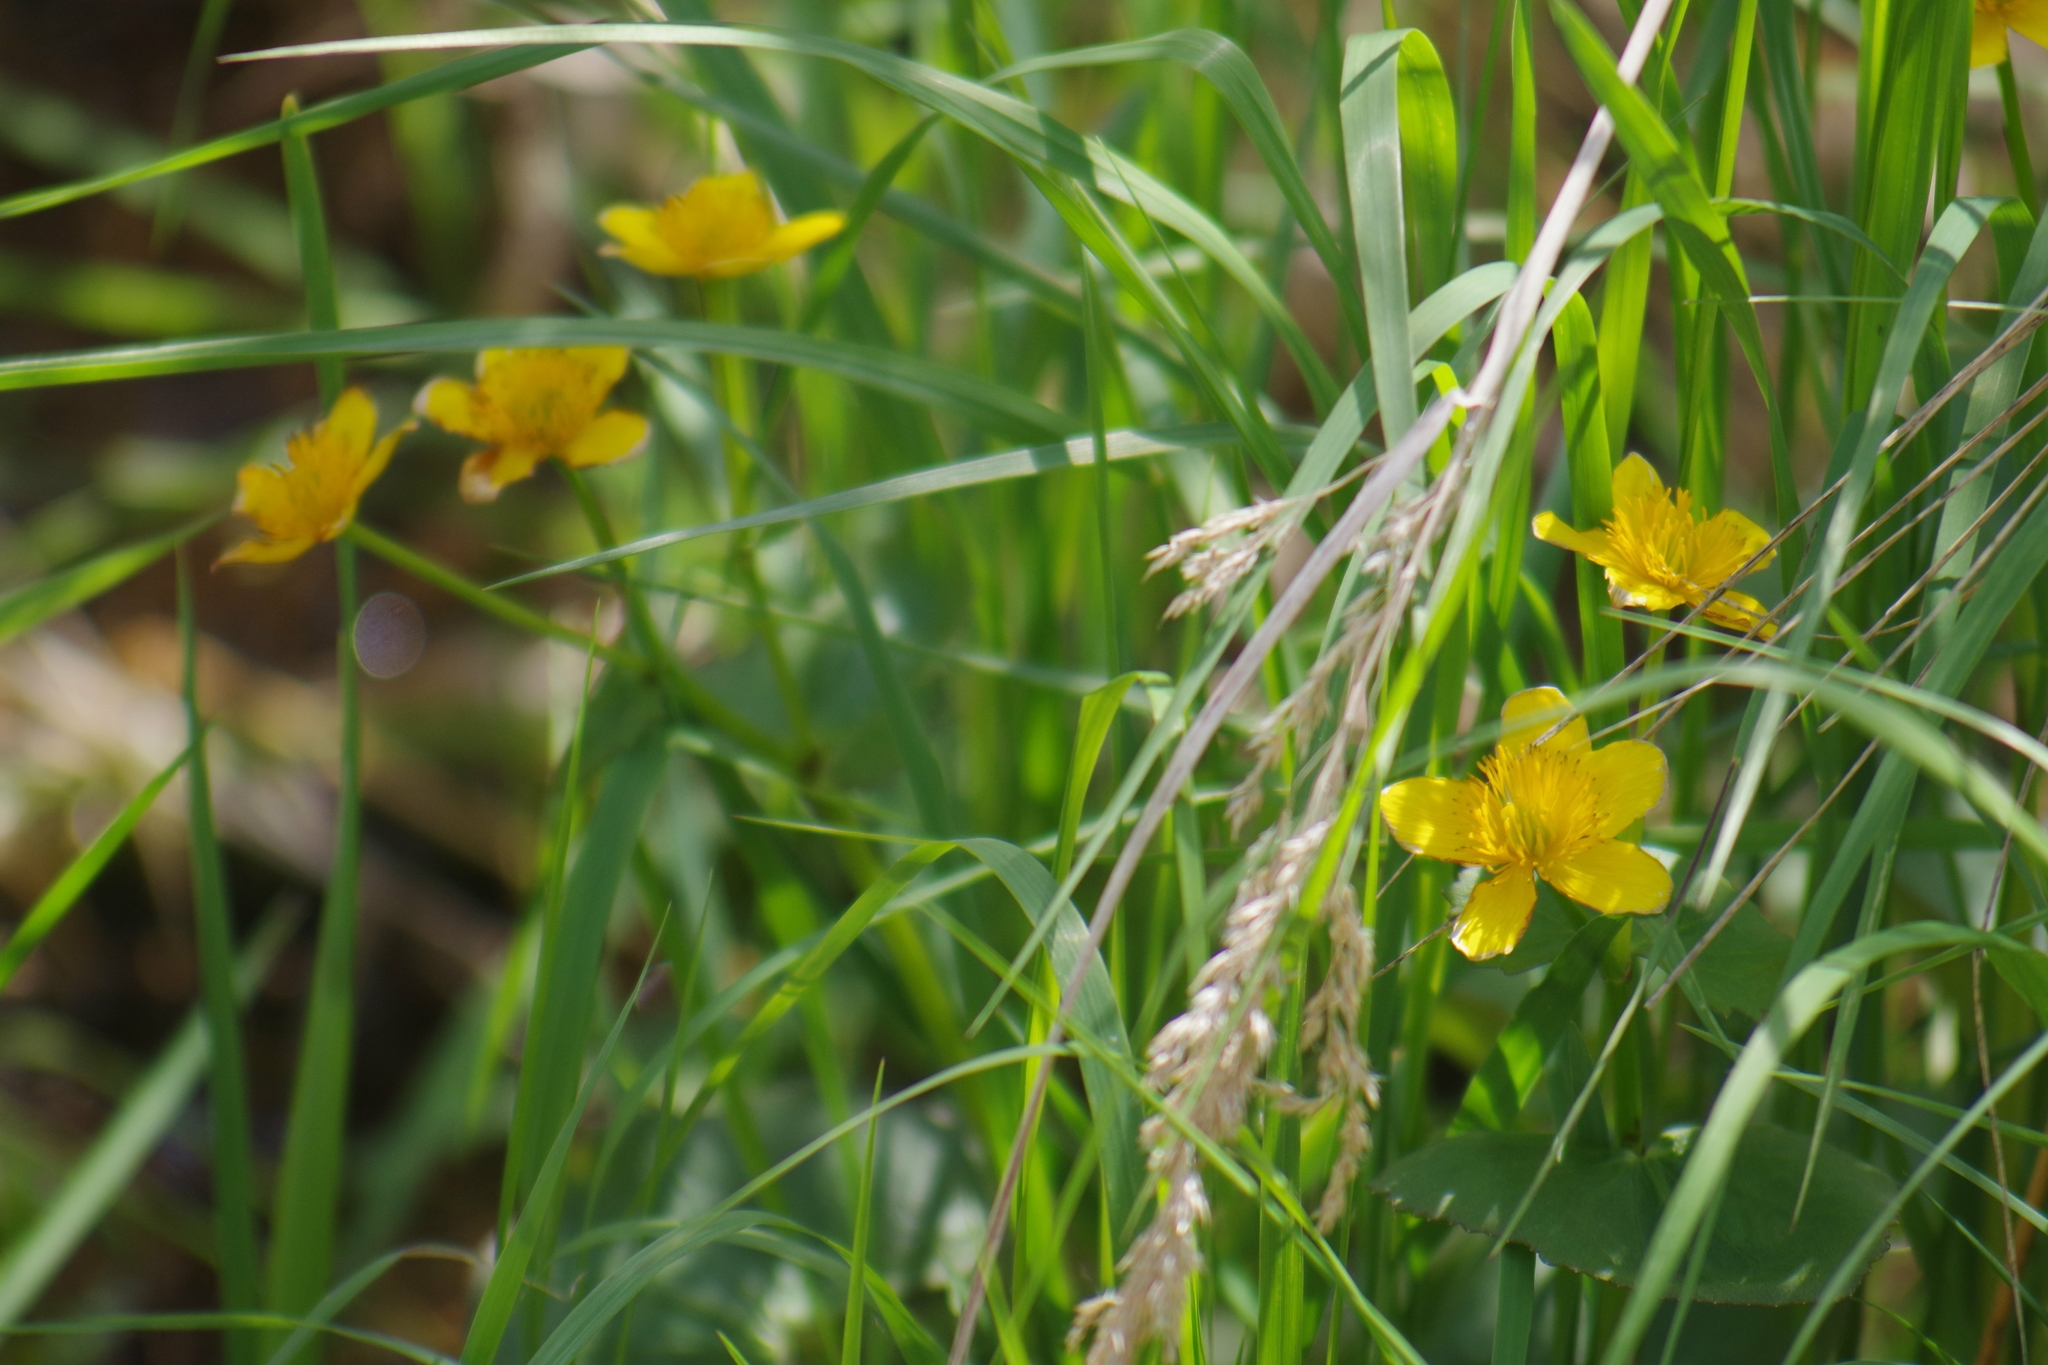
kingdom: Plantae
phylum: Tracheophyta
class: Magnoliopsida
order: Ranunculales
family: Ranunculaceae
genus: Caltha
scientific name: Caltha palustris
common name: Marsh marigold
